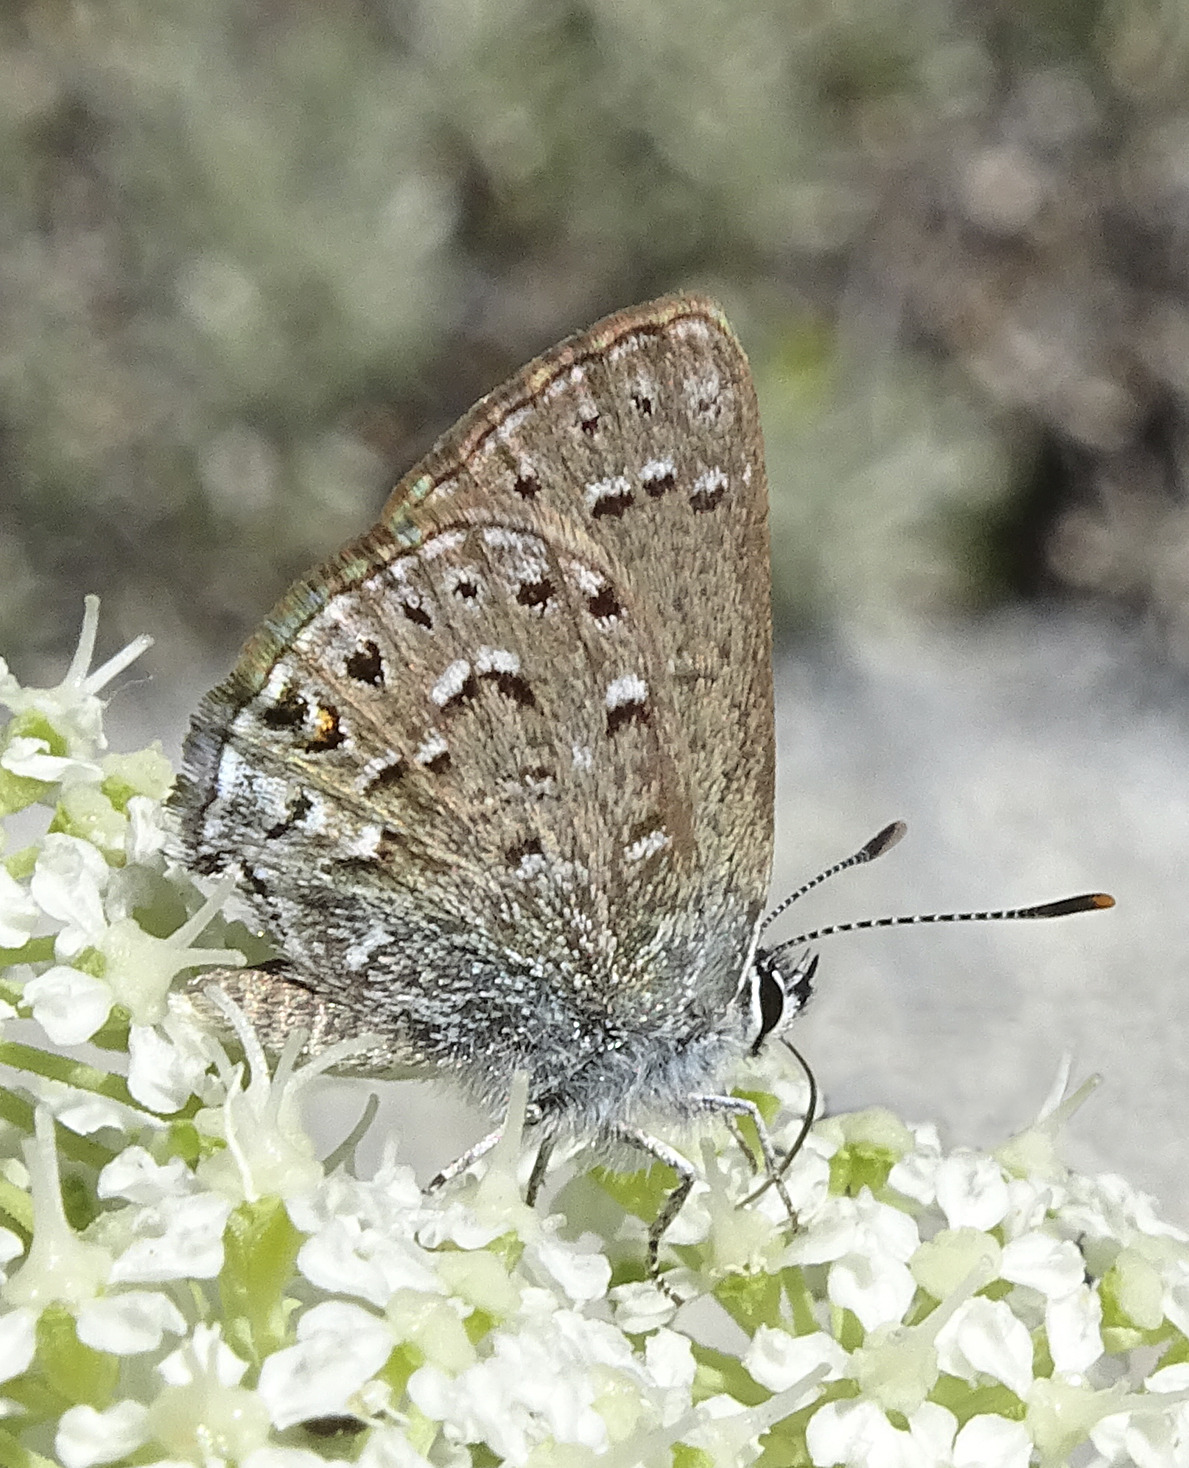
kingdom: Animalia
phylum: Arthropoda
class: Insecta
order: Lepidoptera
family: Lycaenidae
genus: Satyrium
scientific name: Satyrium behrii
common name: Behr's hairstreak
